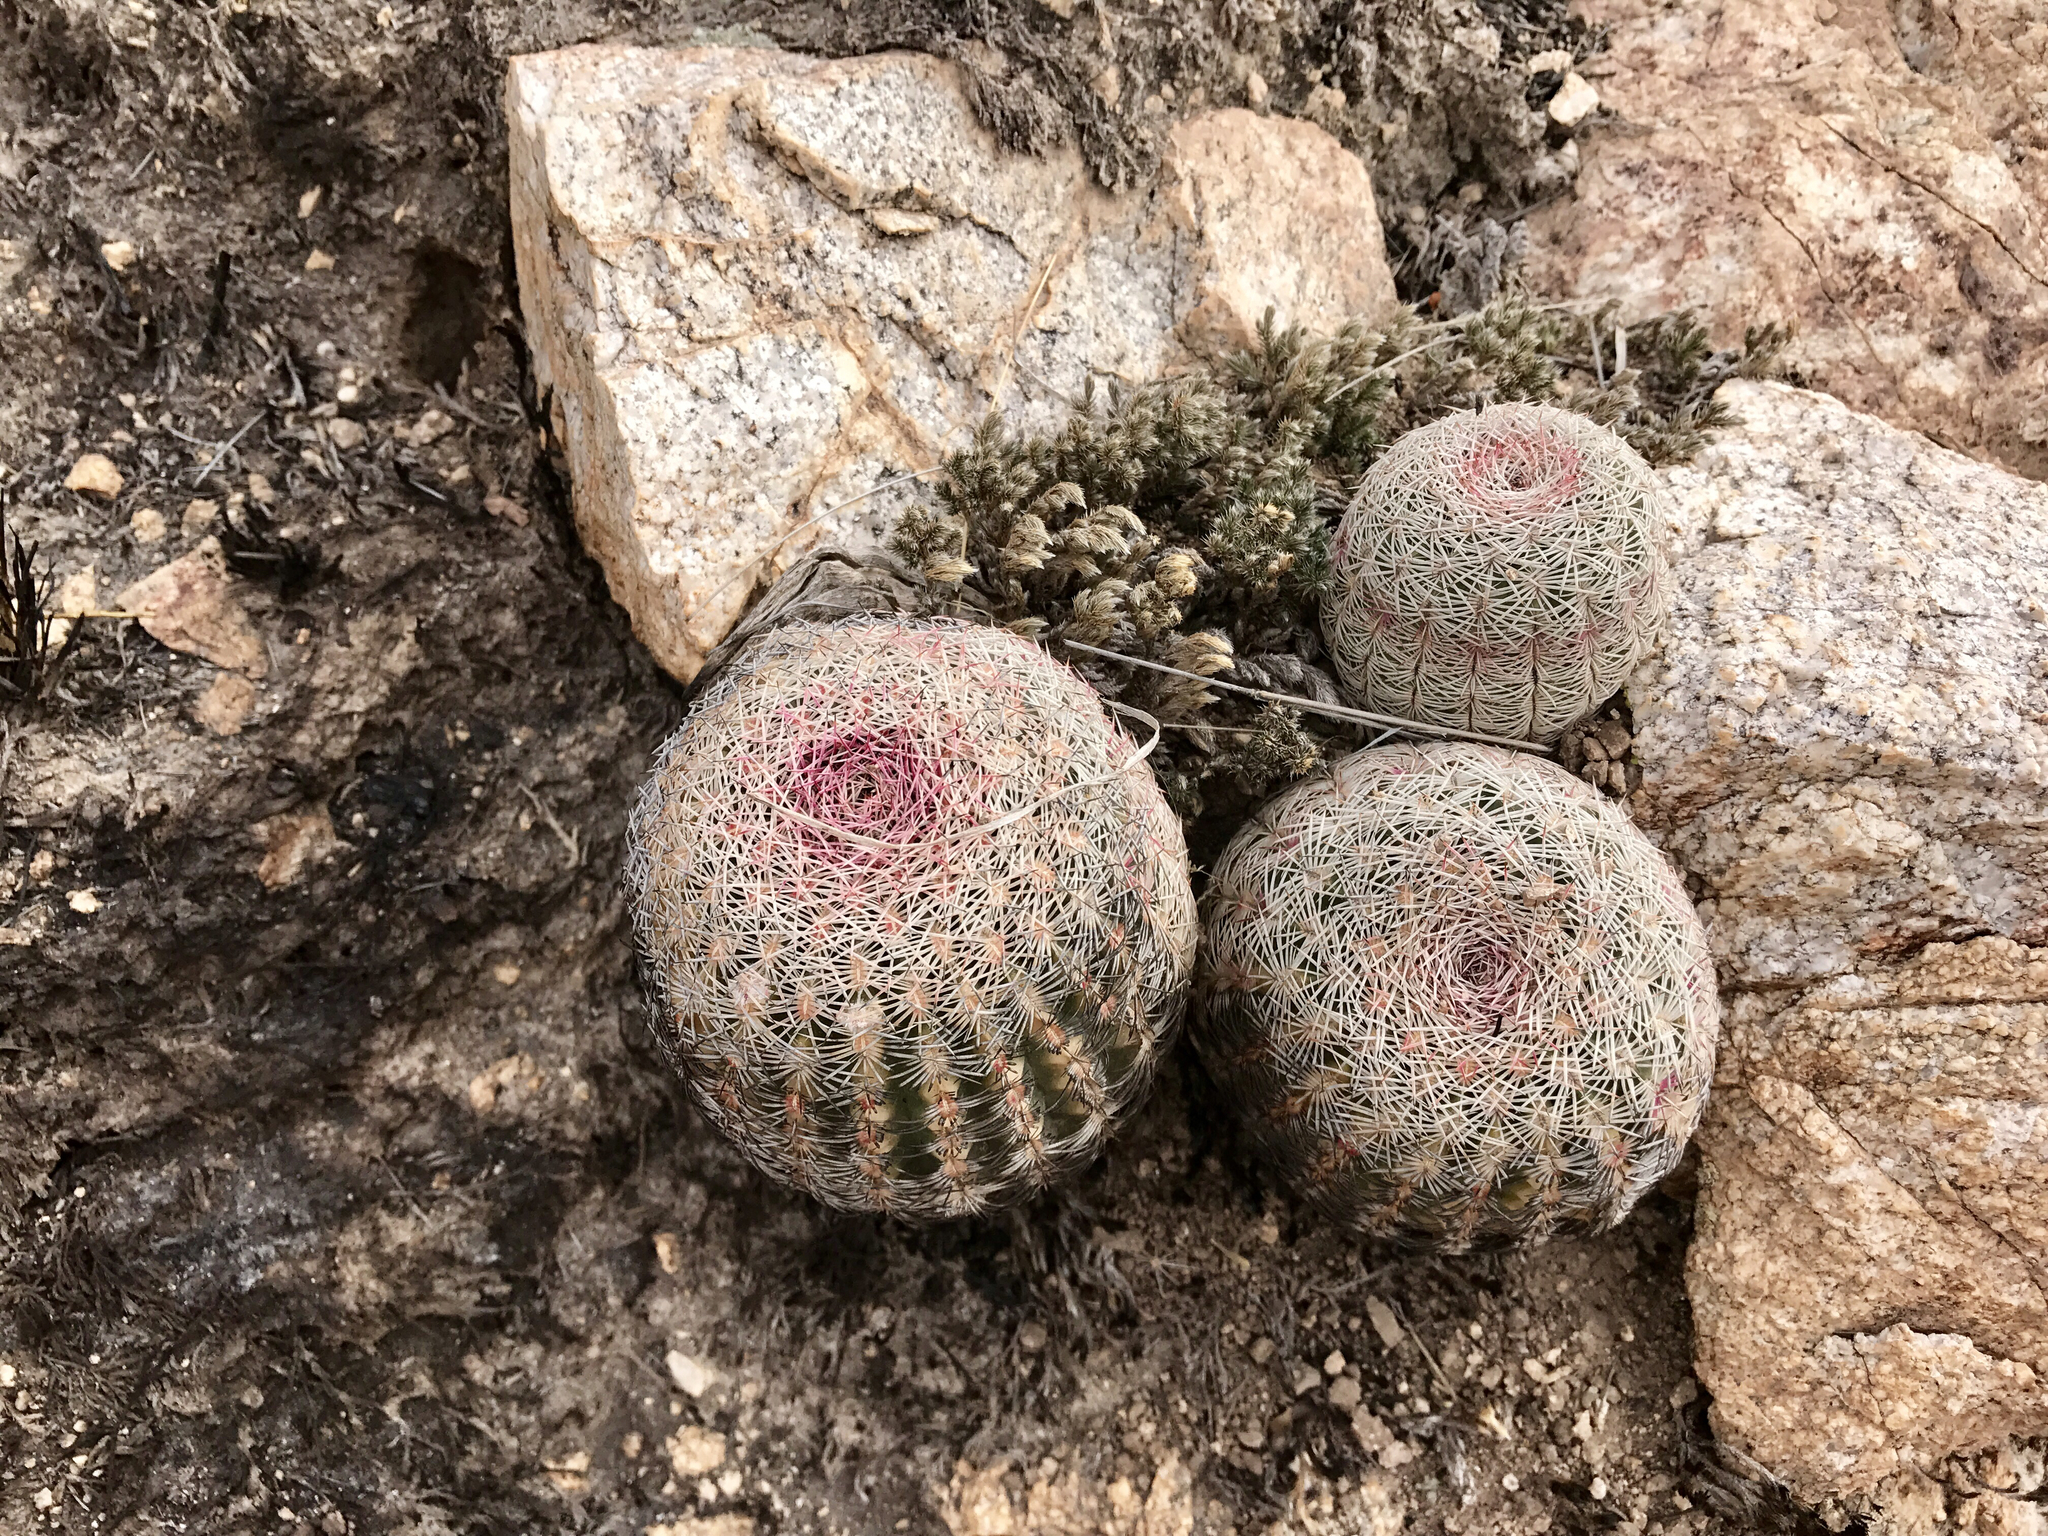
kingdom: Plantae
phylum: Tracheophyta
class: Magnoliopsida
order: Caryophyllales
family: Cactaceae
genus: Echinocereus
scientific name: Echinocereus rigidissimus
